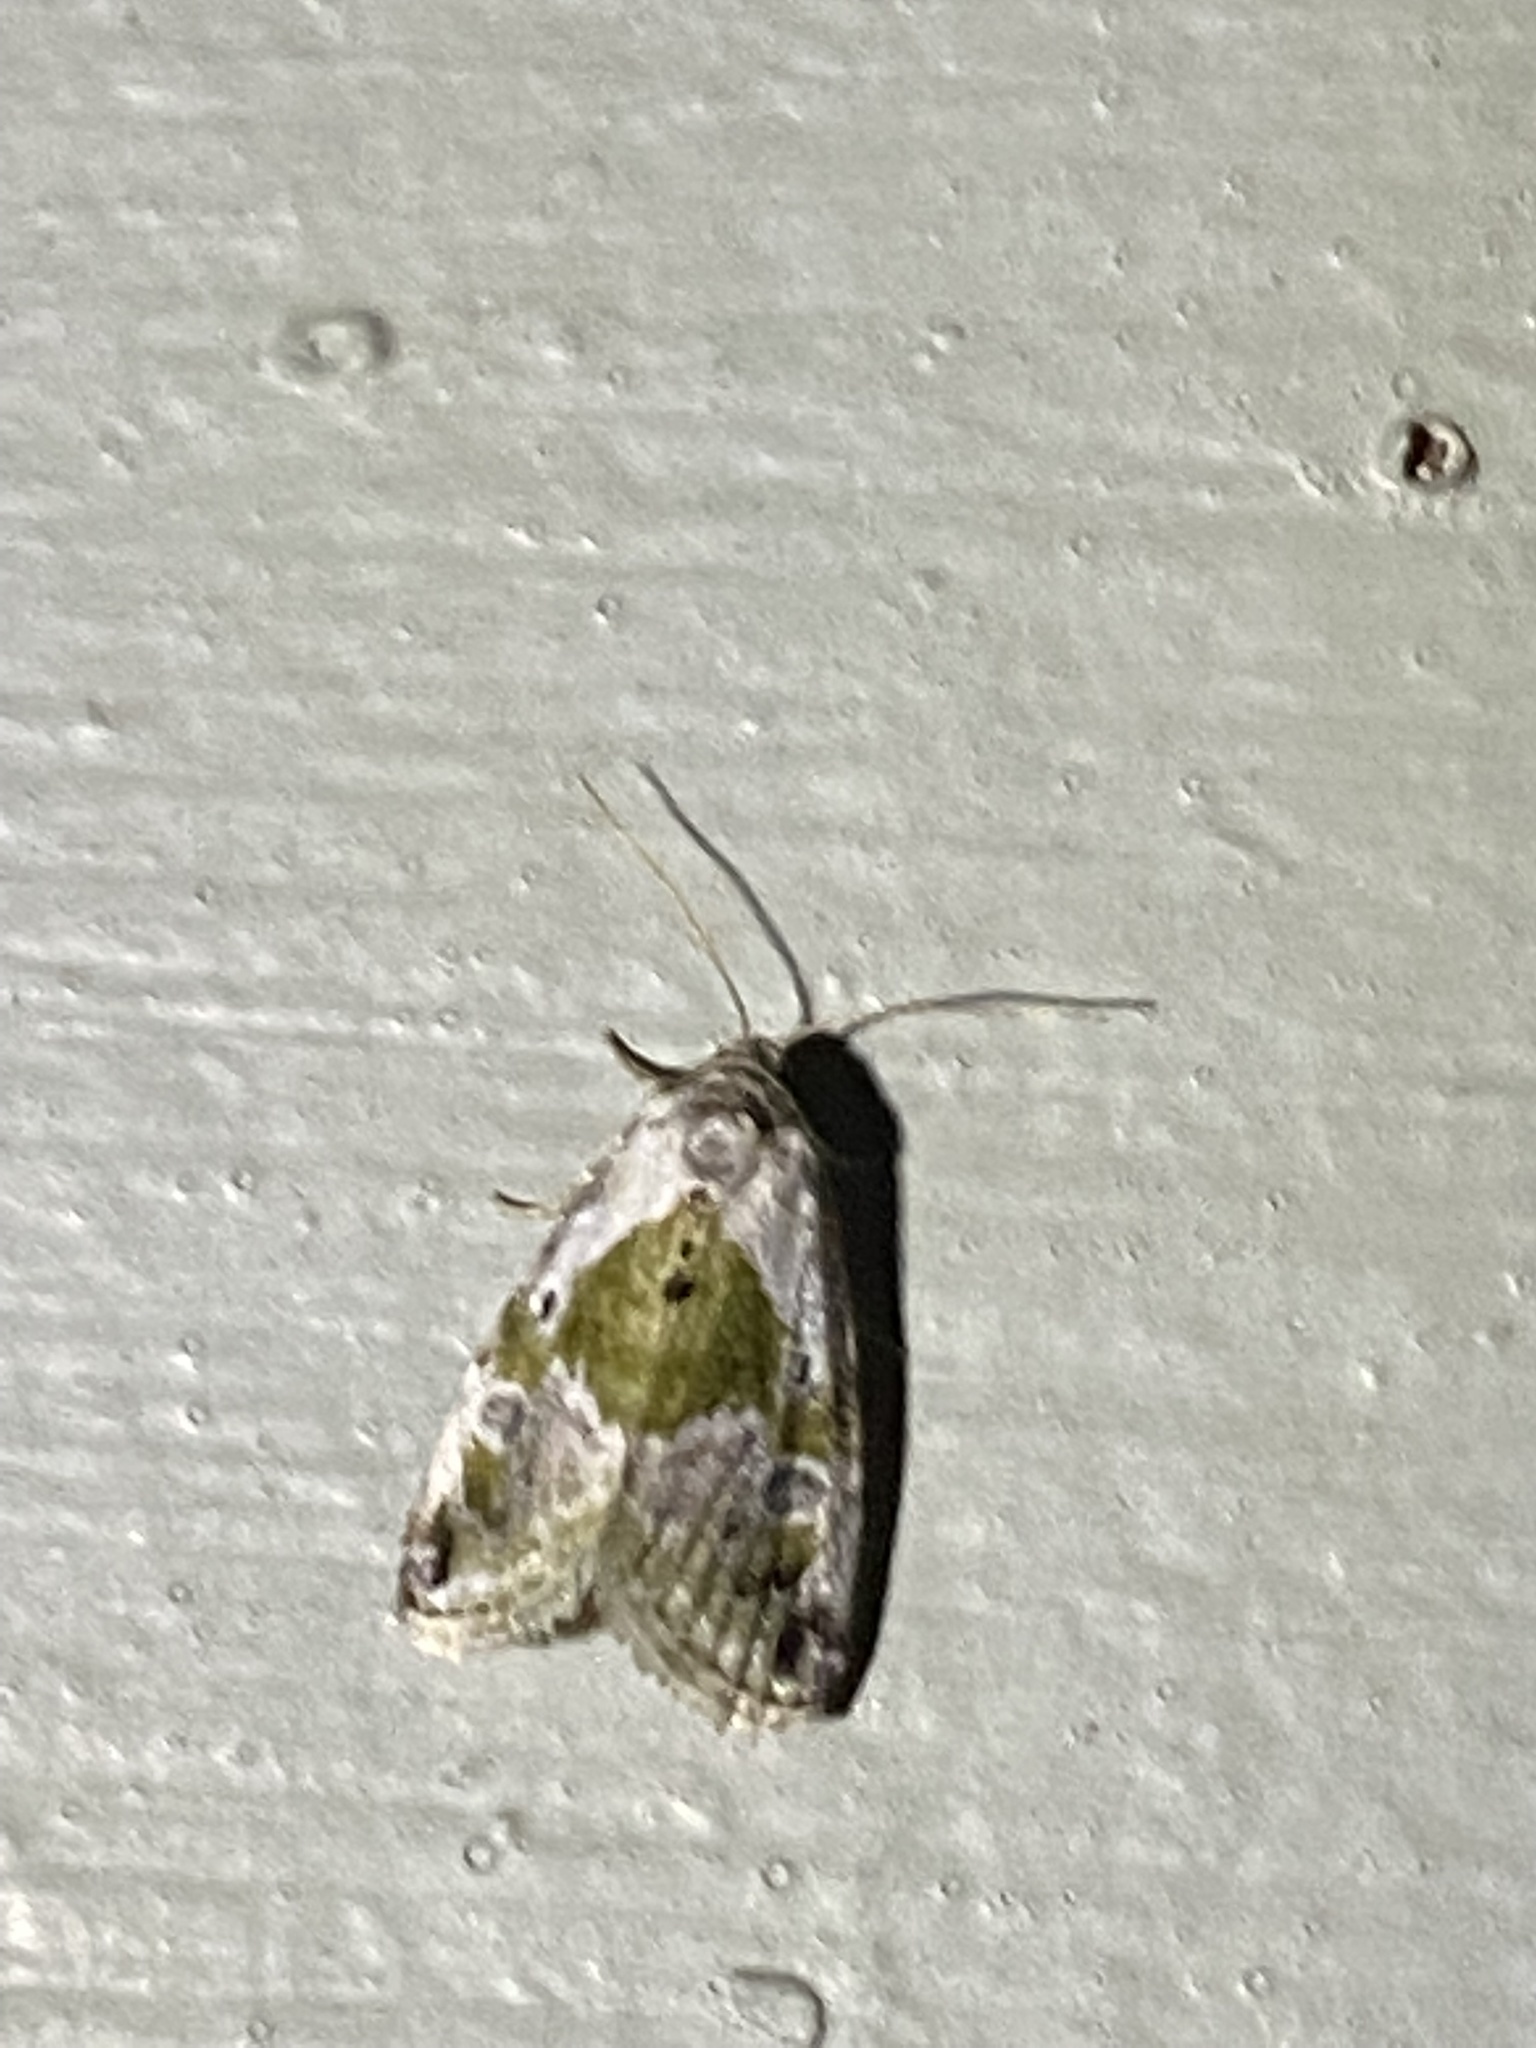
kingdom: Animalia
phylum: Arthropoda
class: Insecta
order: Lepidoptera
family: Noctuidae
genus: Maliattha
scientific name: Maliattha synochitis
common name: Black-dotted glyph
